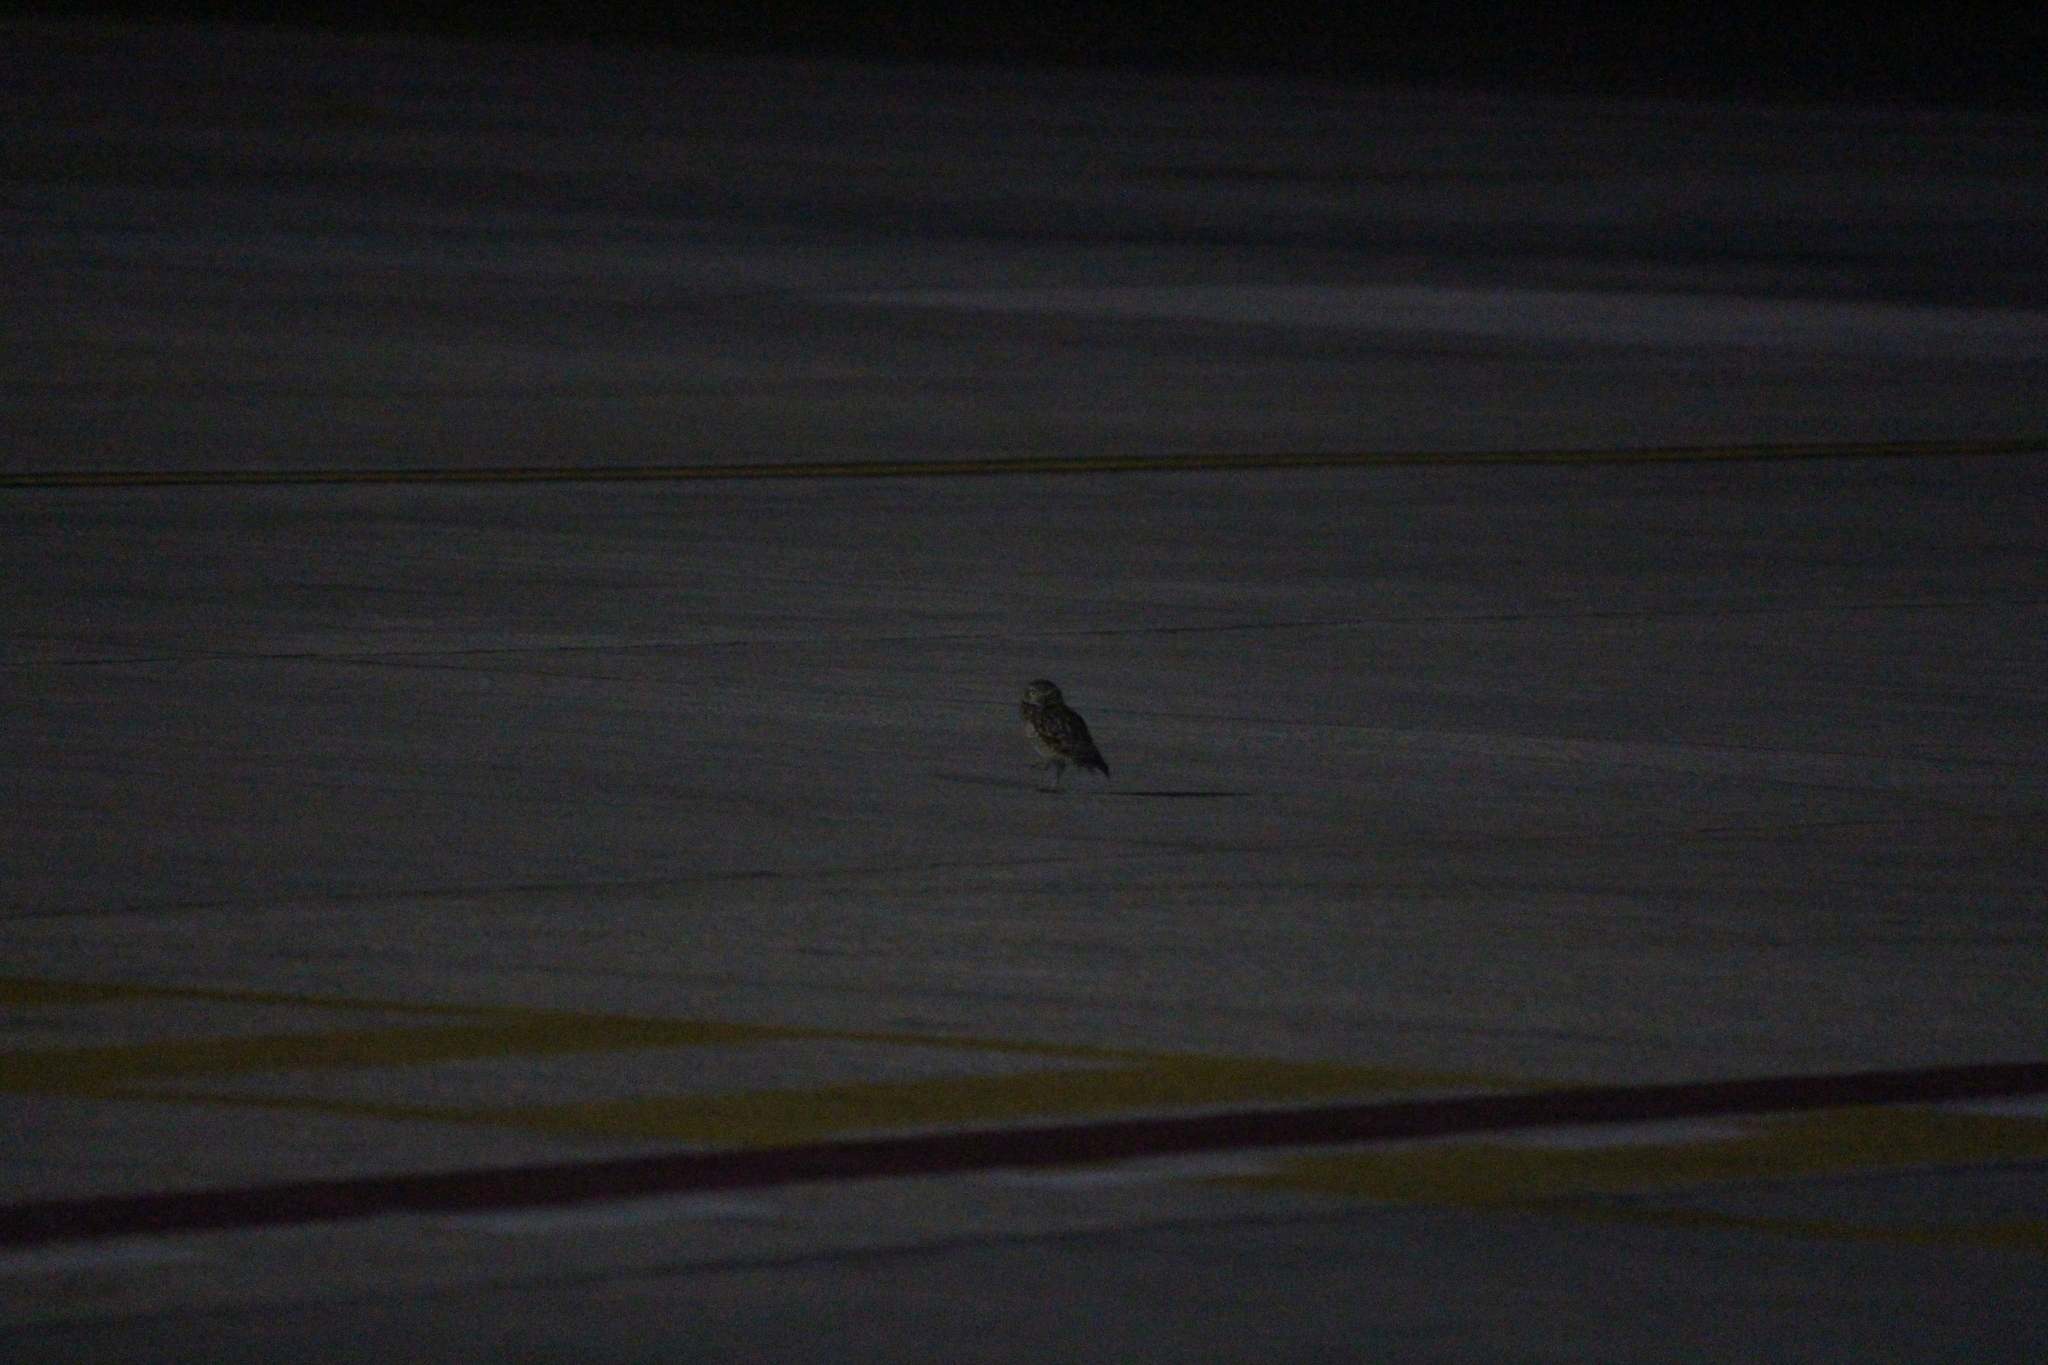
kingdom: Animalia
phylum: Chordata
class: Aves
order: Strigiformes
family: Strigidae
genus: Athene
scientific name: Athene cunicularia
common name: Burrowing owl
